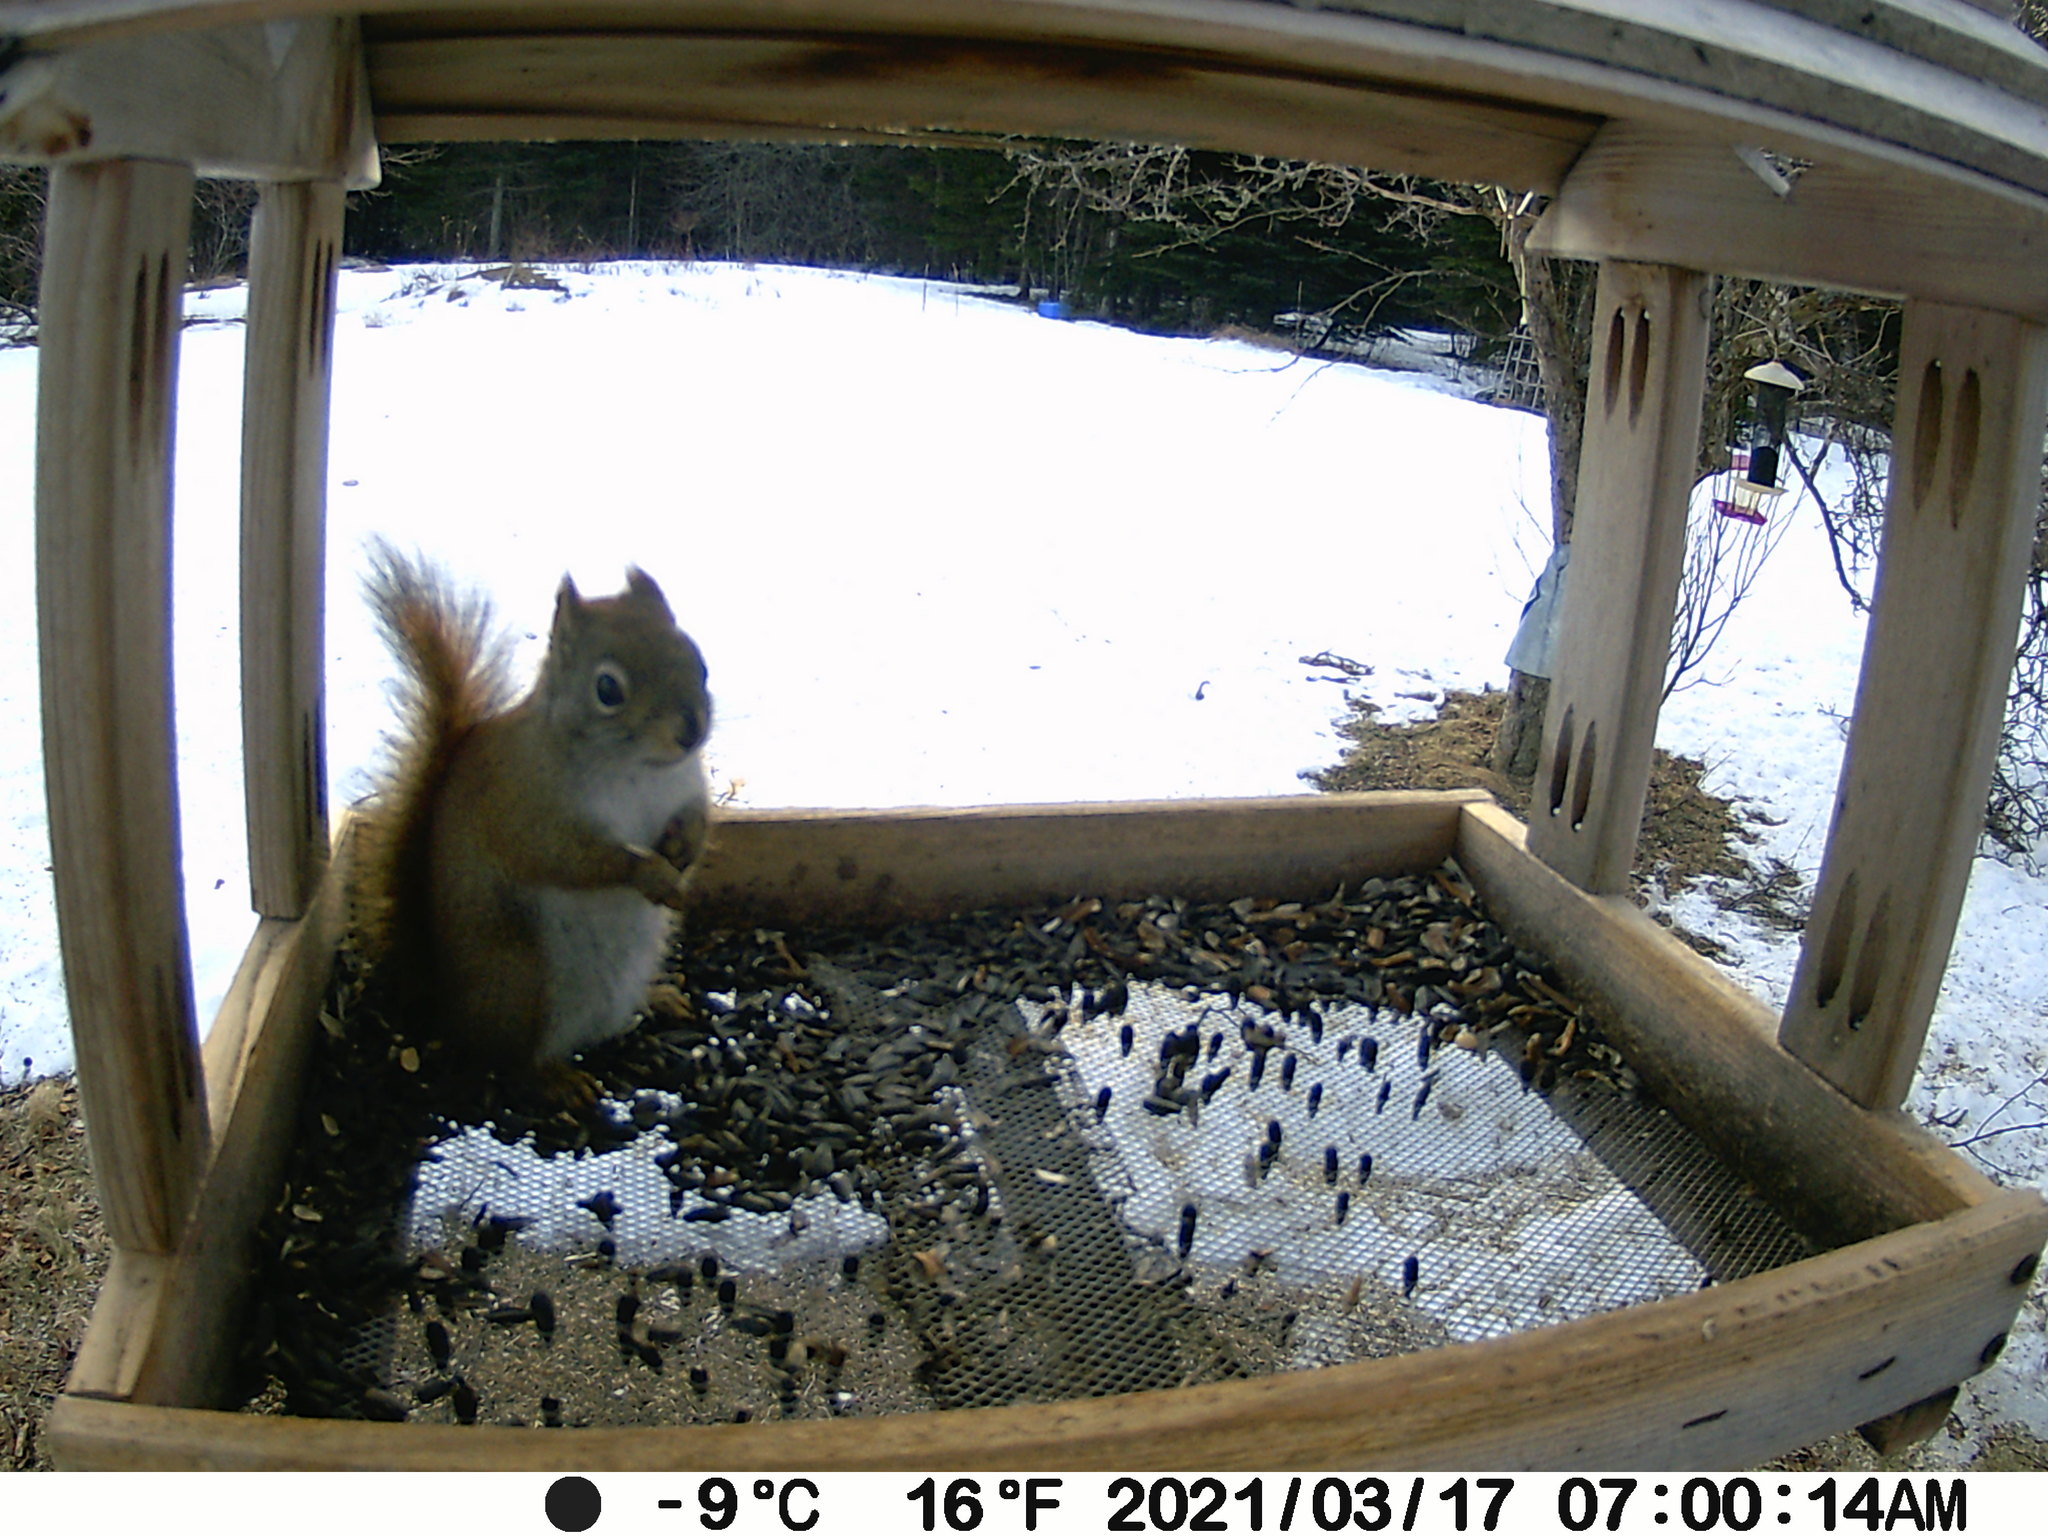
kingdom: Animalia
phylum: Chordata
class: Mammalia
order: Rodentia
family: Sciuridae
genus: Tamiasciurus
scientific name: Tamiasciurus hudsonicus
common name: Red squirrel
